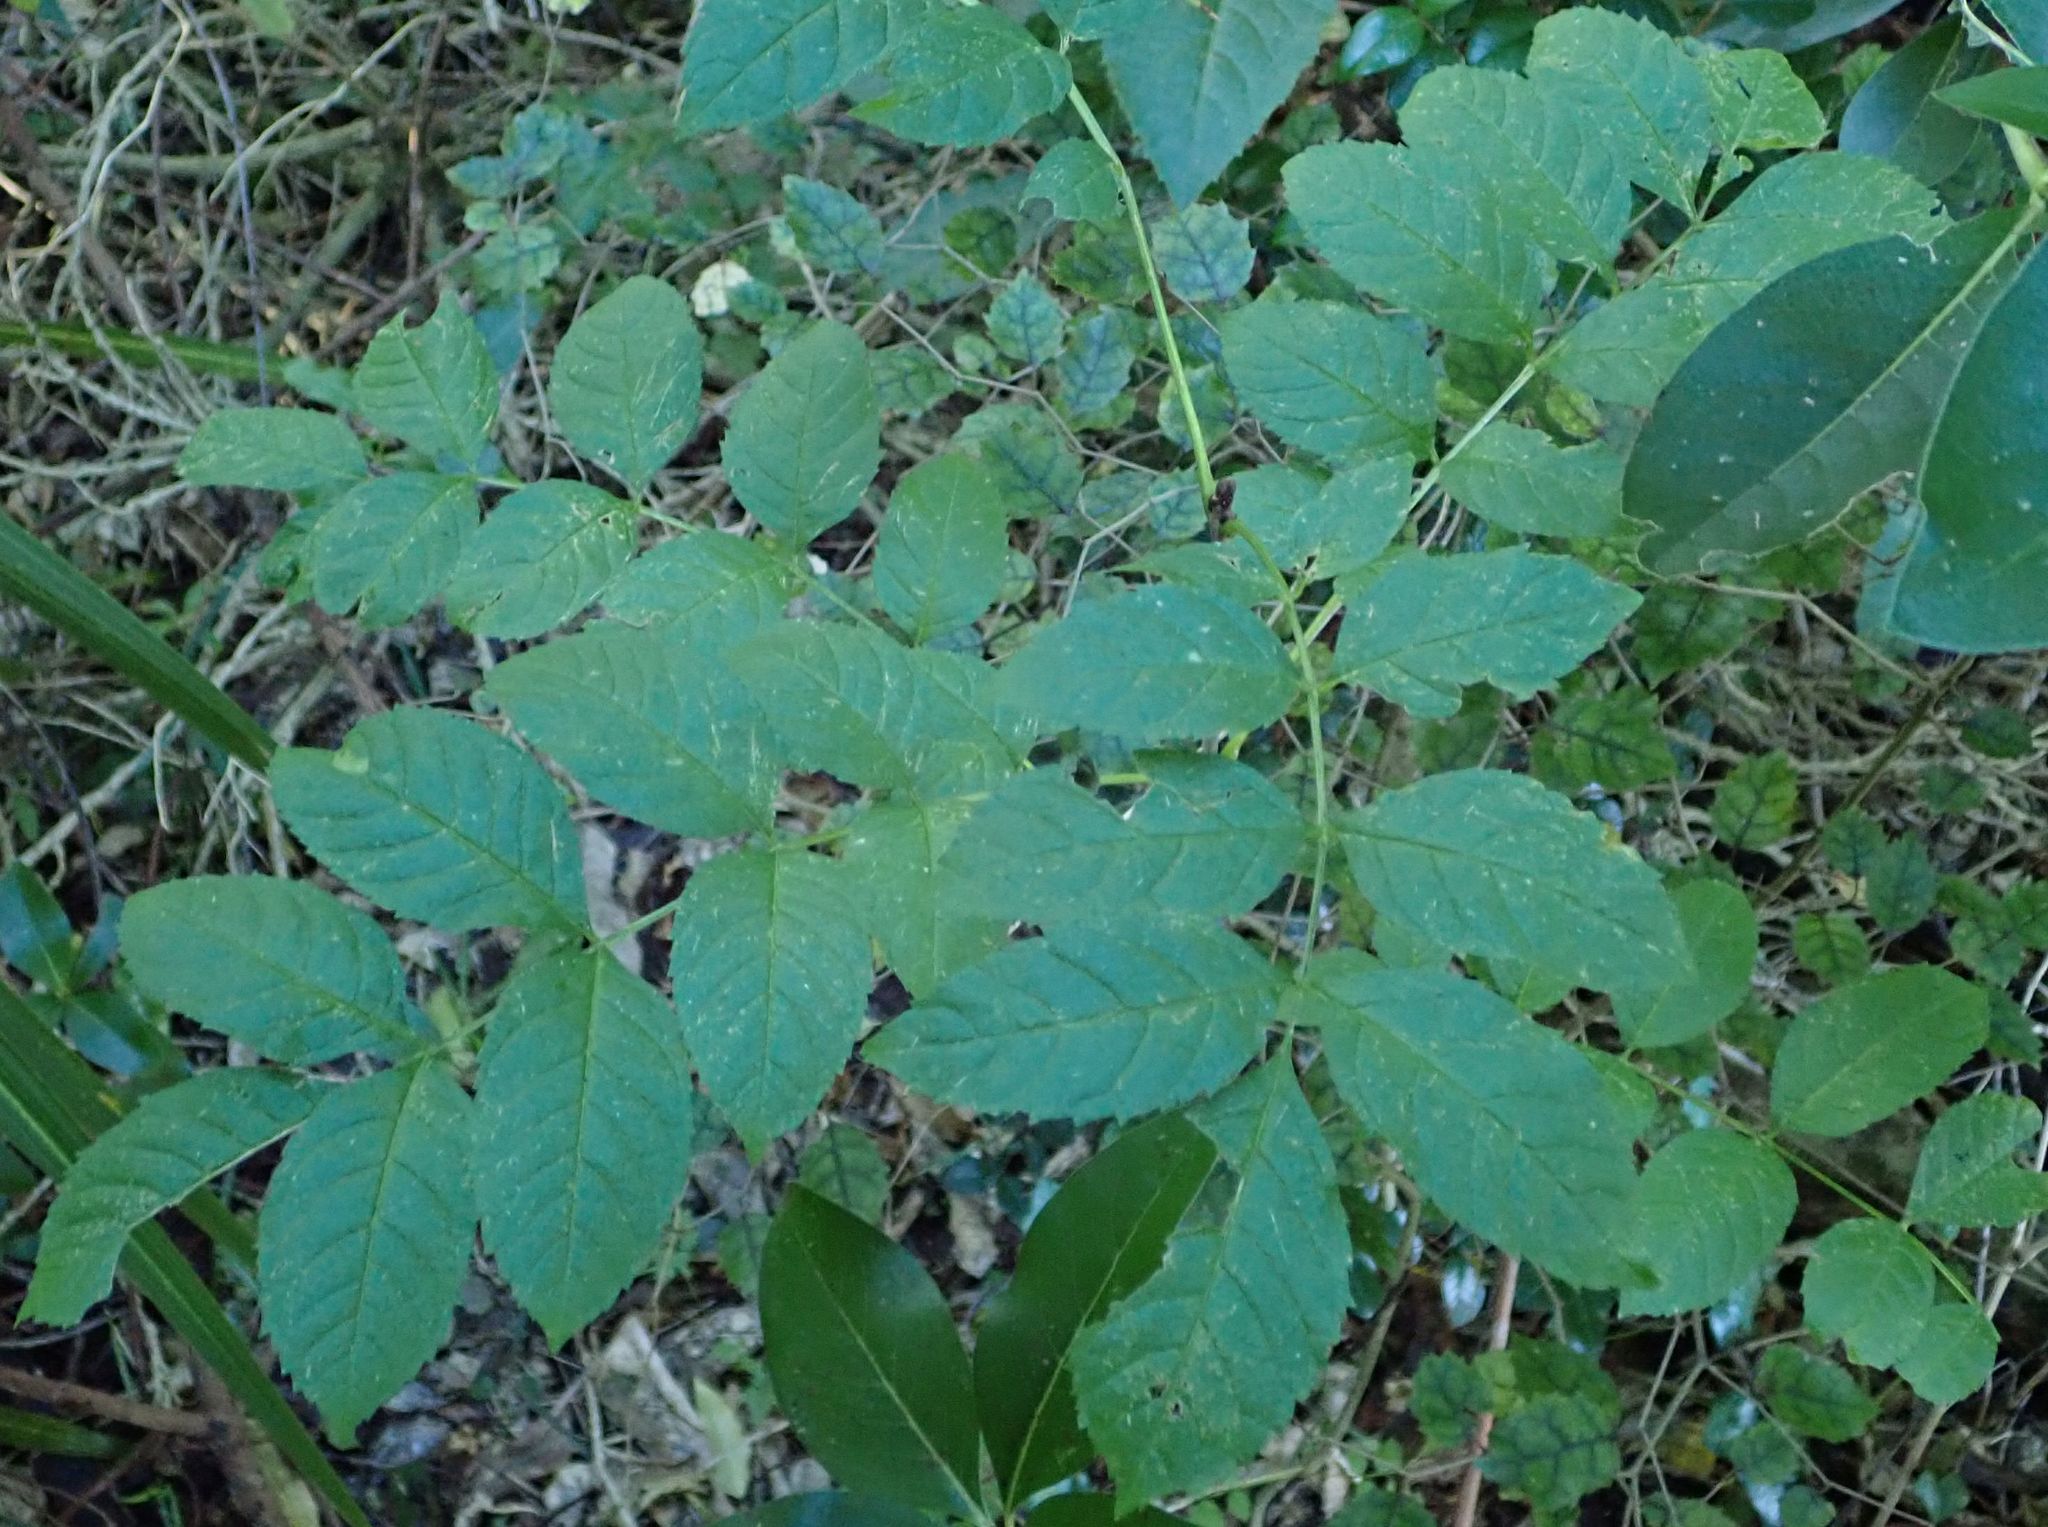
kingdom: Plantae
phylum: Tracheophyta
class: Magnoliopsida
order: Lamiales
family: Oleaceae
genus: Fraxinus
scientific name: Fraxinus excelsior
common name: European ash
